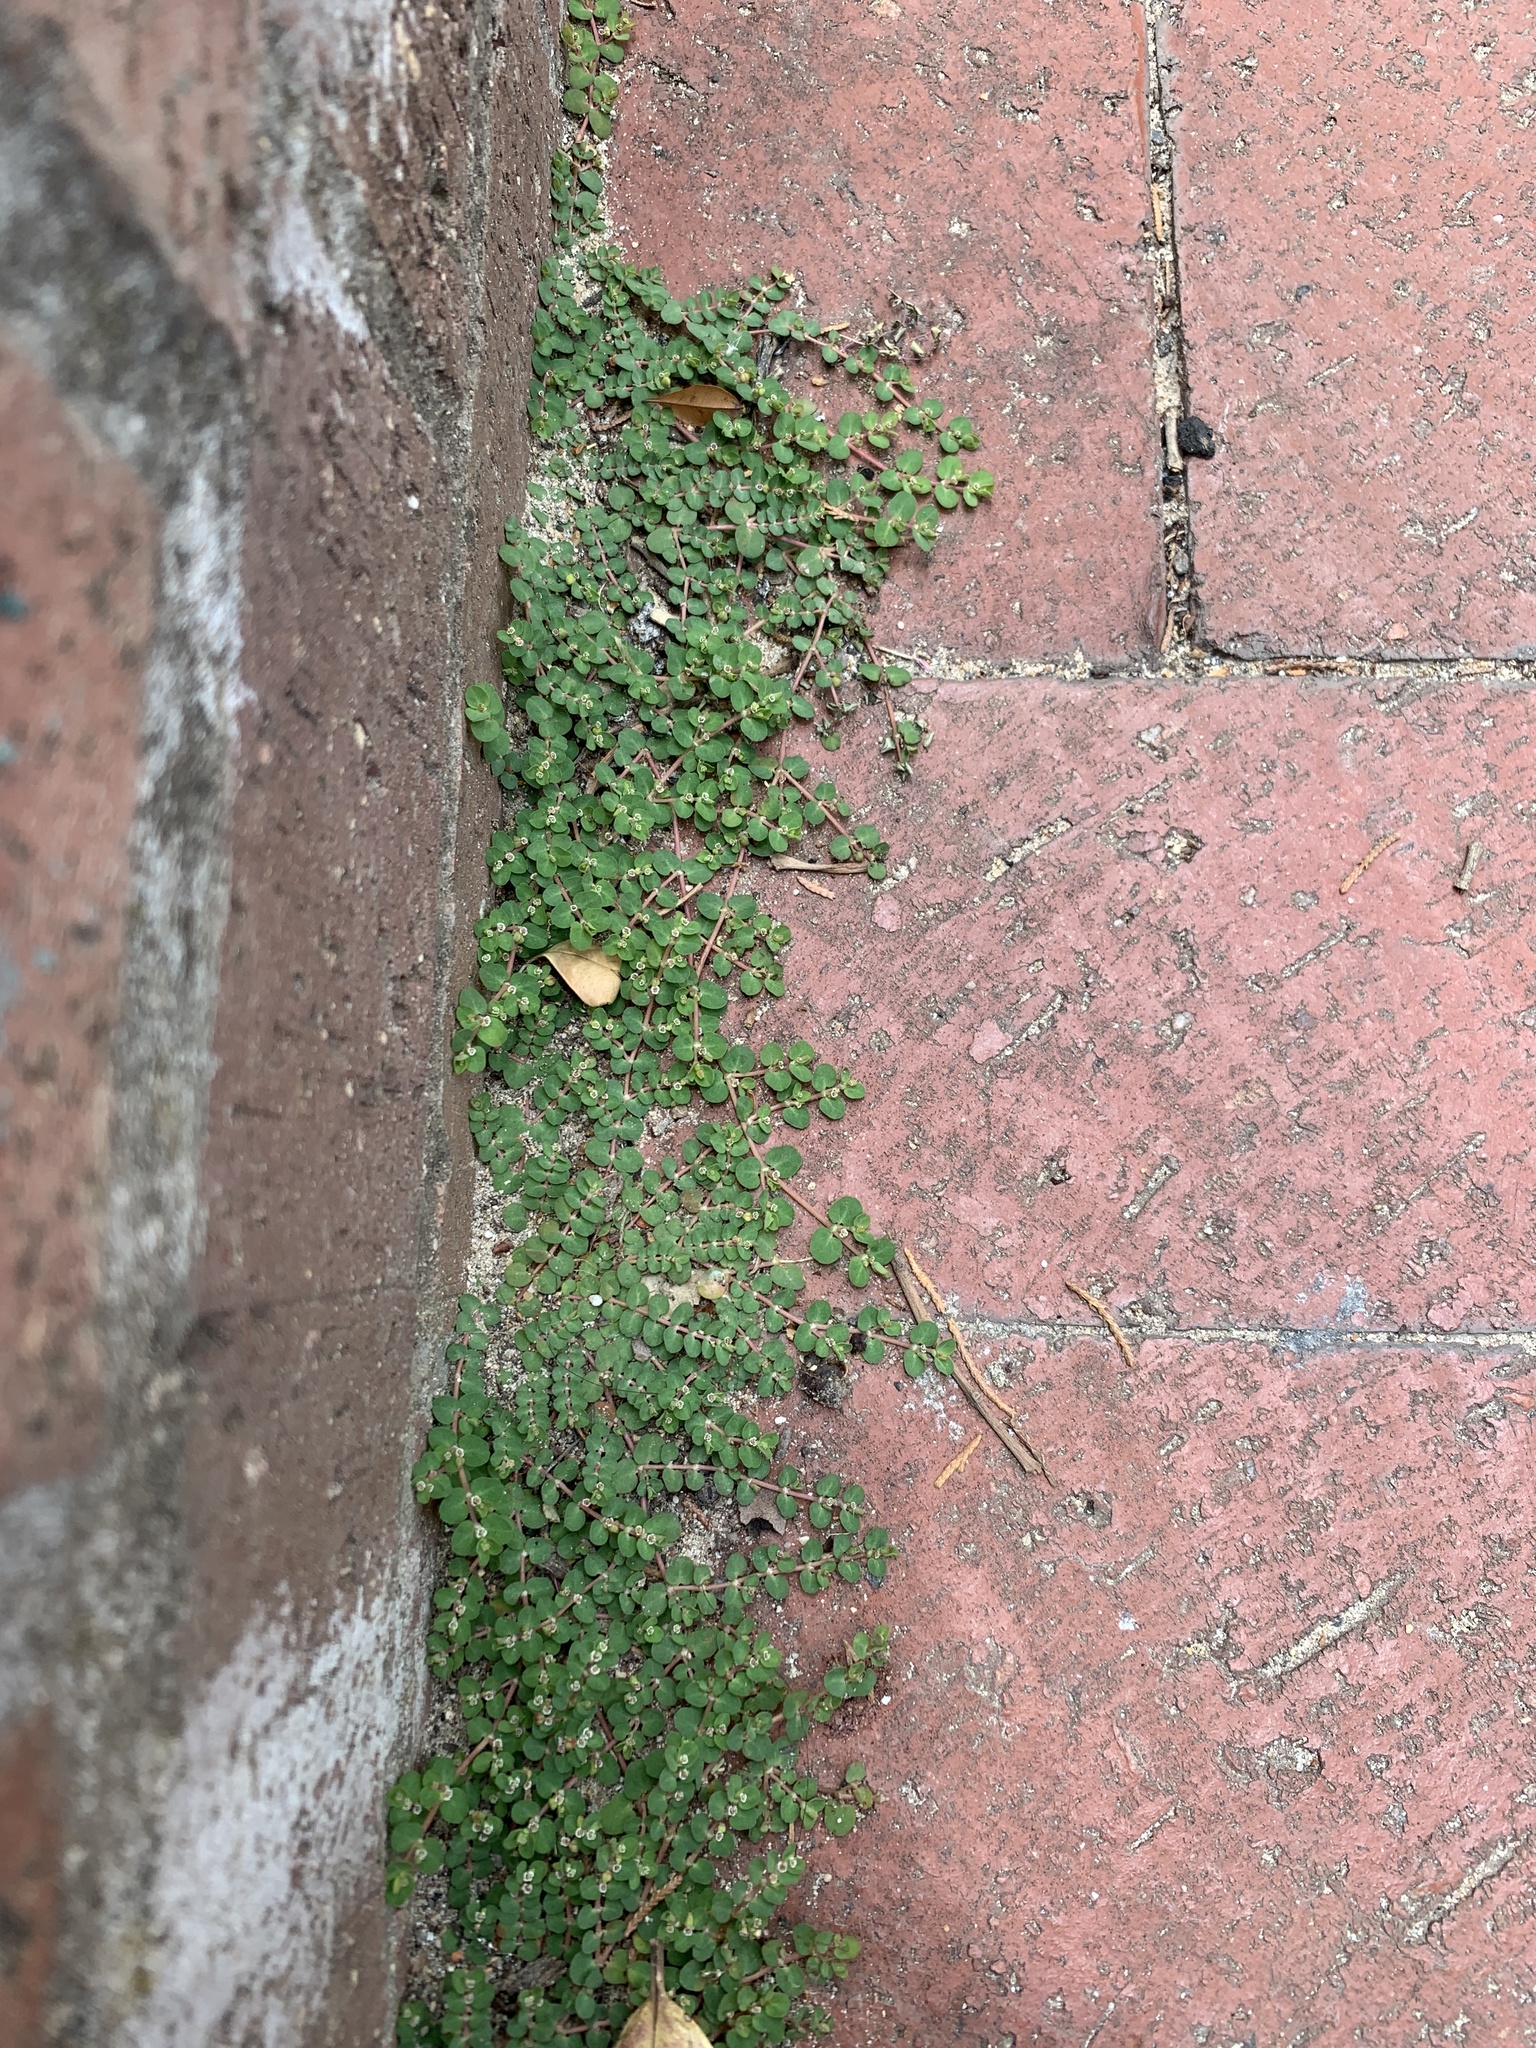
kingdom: Plantae
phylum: Tracheophyta
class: Magnoliopsida
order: Malpighiales
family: Euphorbiaceae
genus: Euphorbia
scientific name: Euphorbia serpens
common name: Matted sandmat
